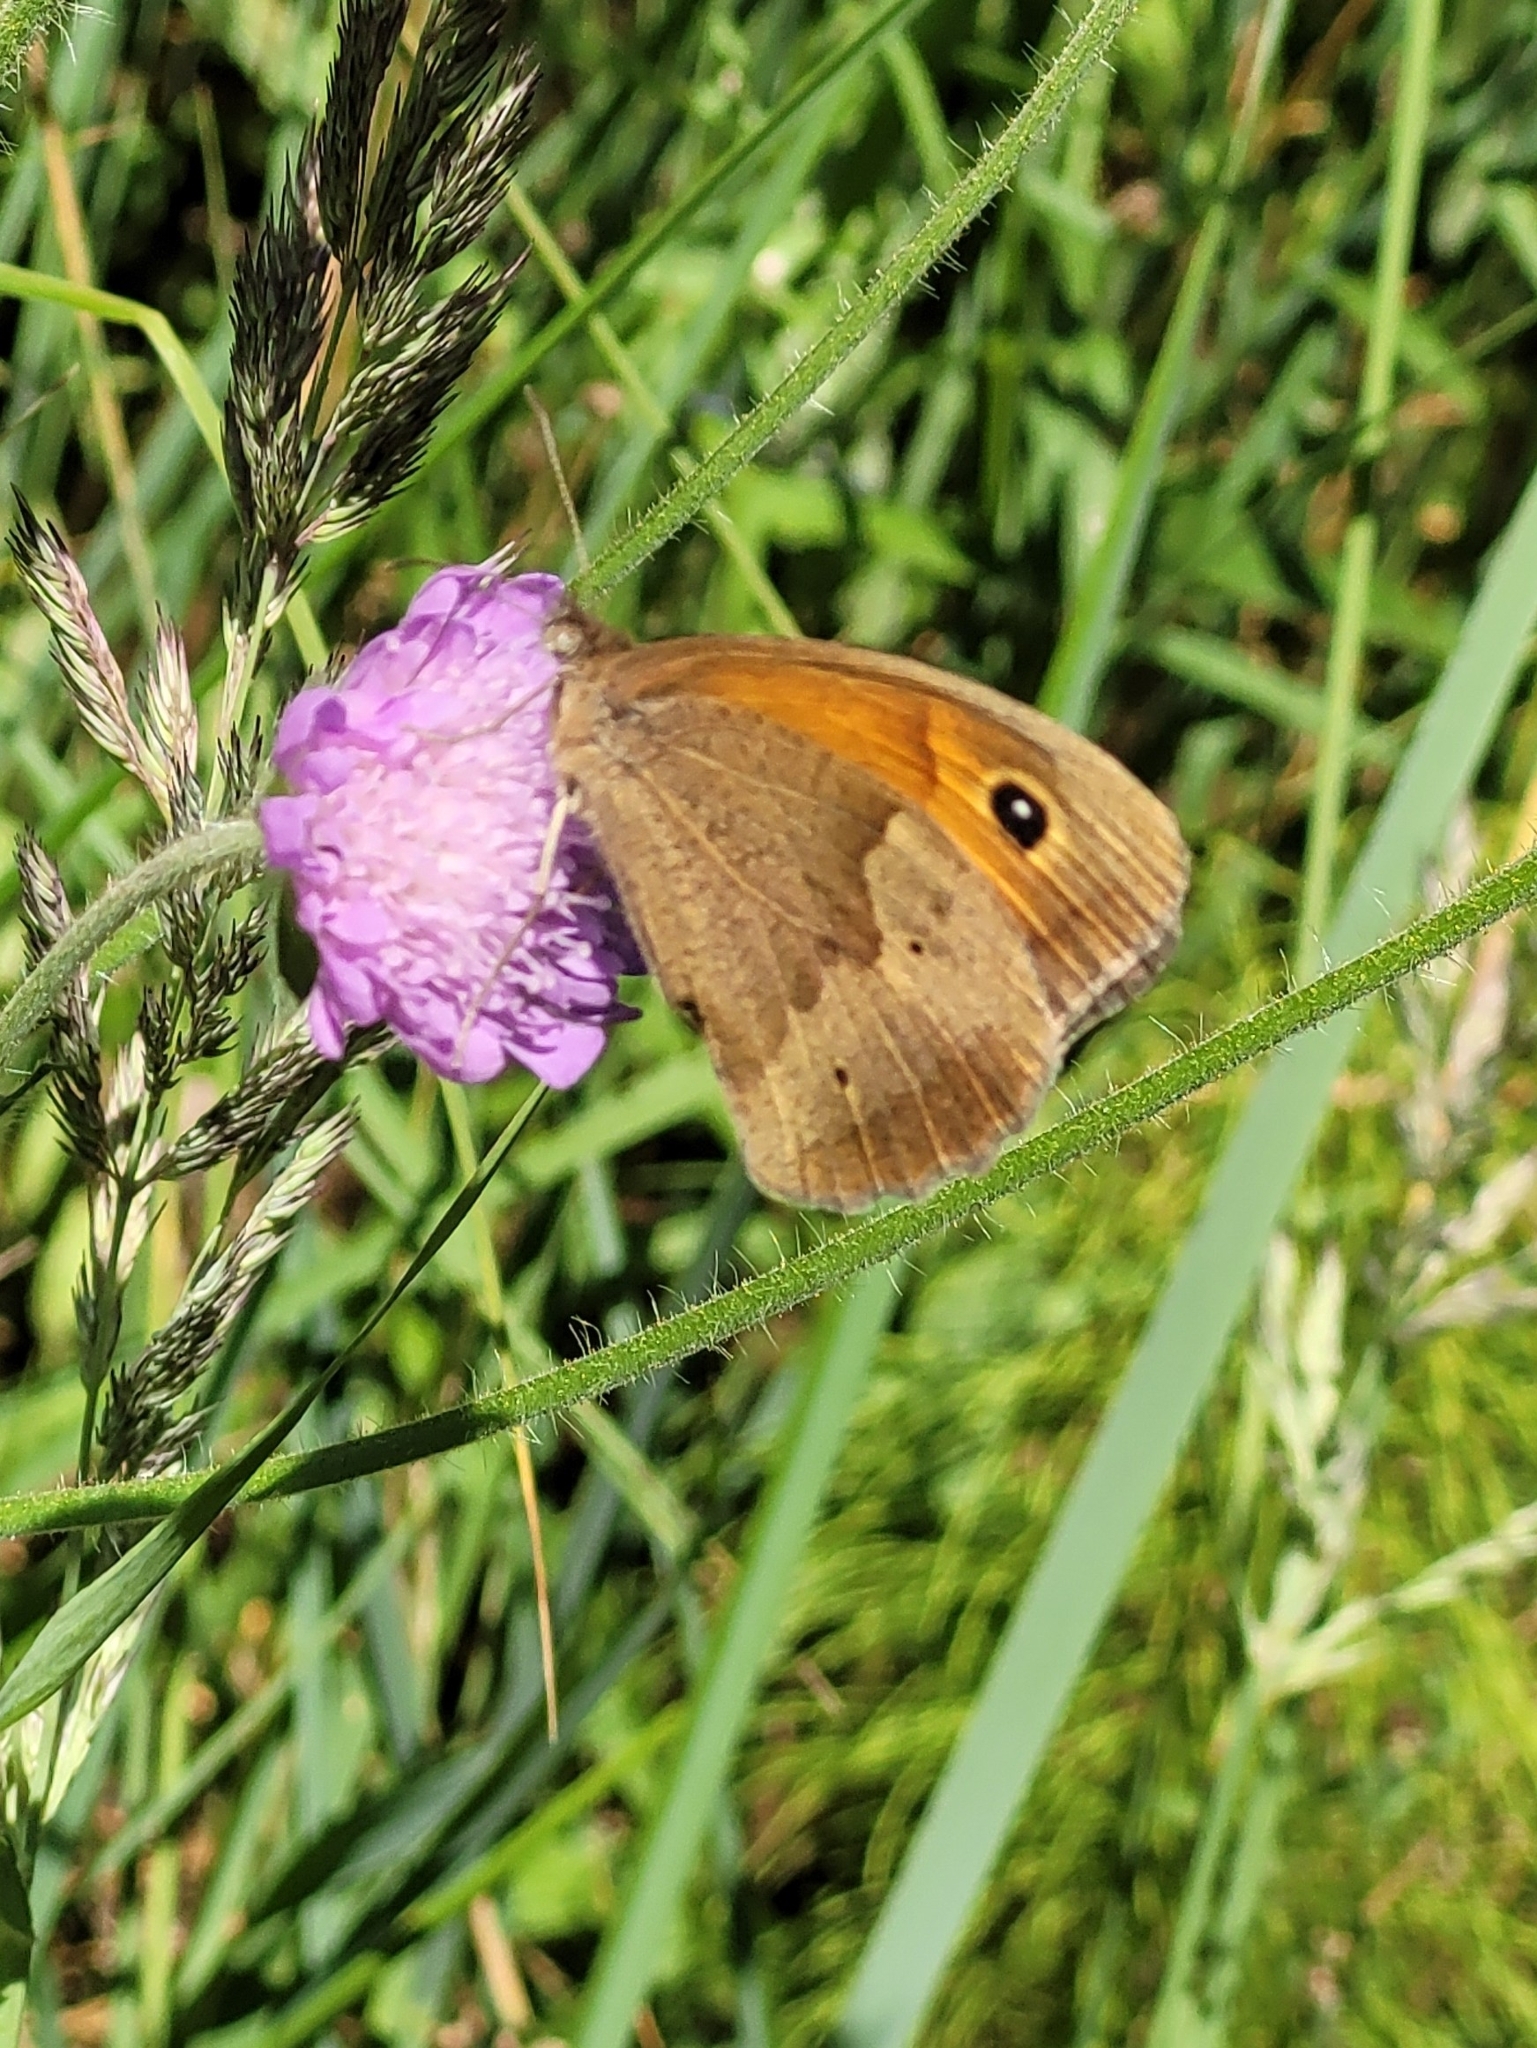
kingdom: Animalia
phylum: Arthropoda
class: Insecta
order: Lepidoptera
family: Nymphalidae
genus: Maniola
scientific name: Maniola jurtina
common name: Meadow brown
